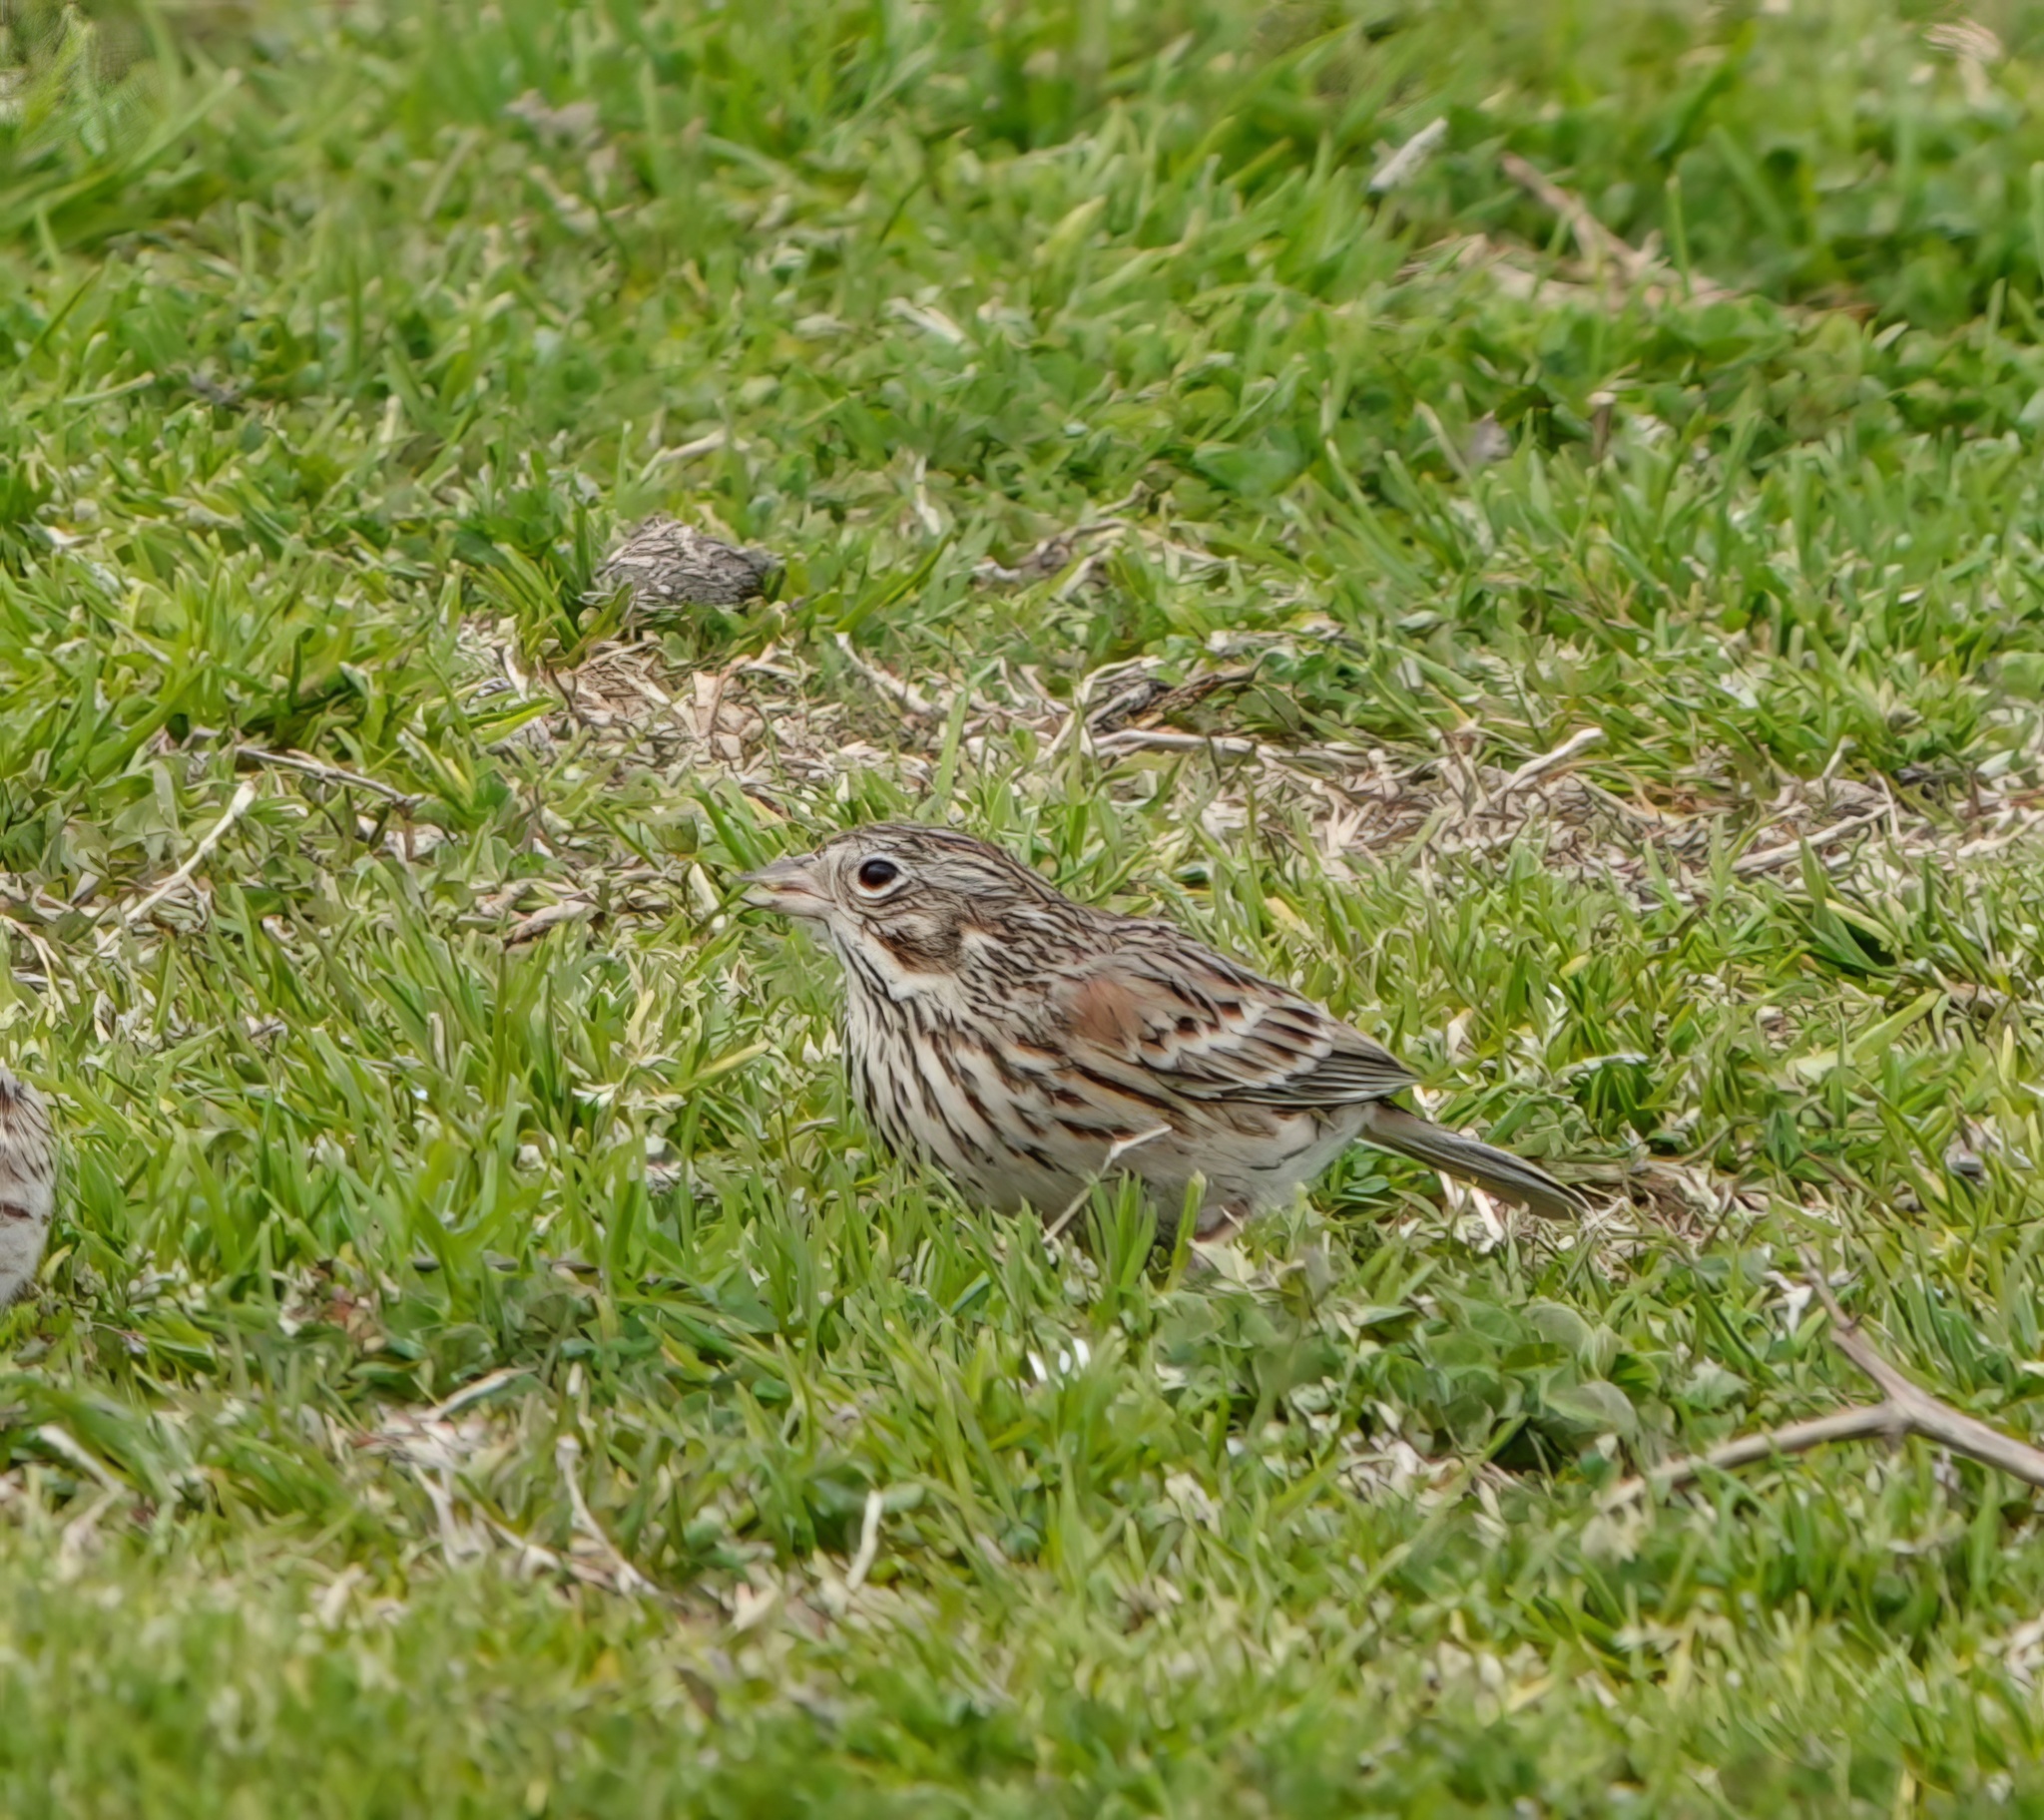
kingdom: Animalia
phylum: Chordata
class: Aves
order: Passeriformes
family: Passerellidae
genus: Pooecetes
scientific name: Pooecetes gramineus
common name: Vesper sparrow
